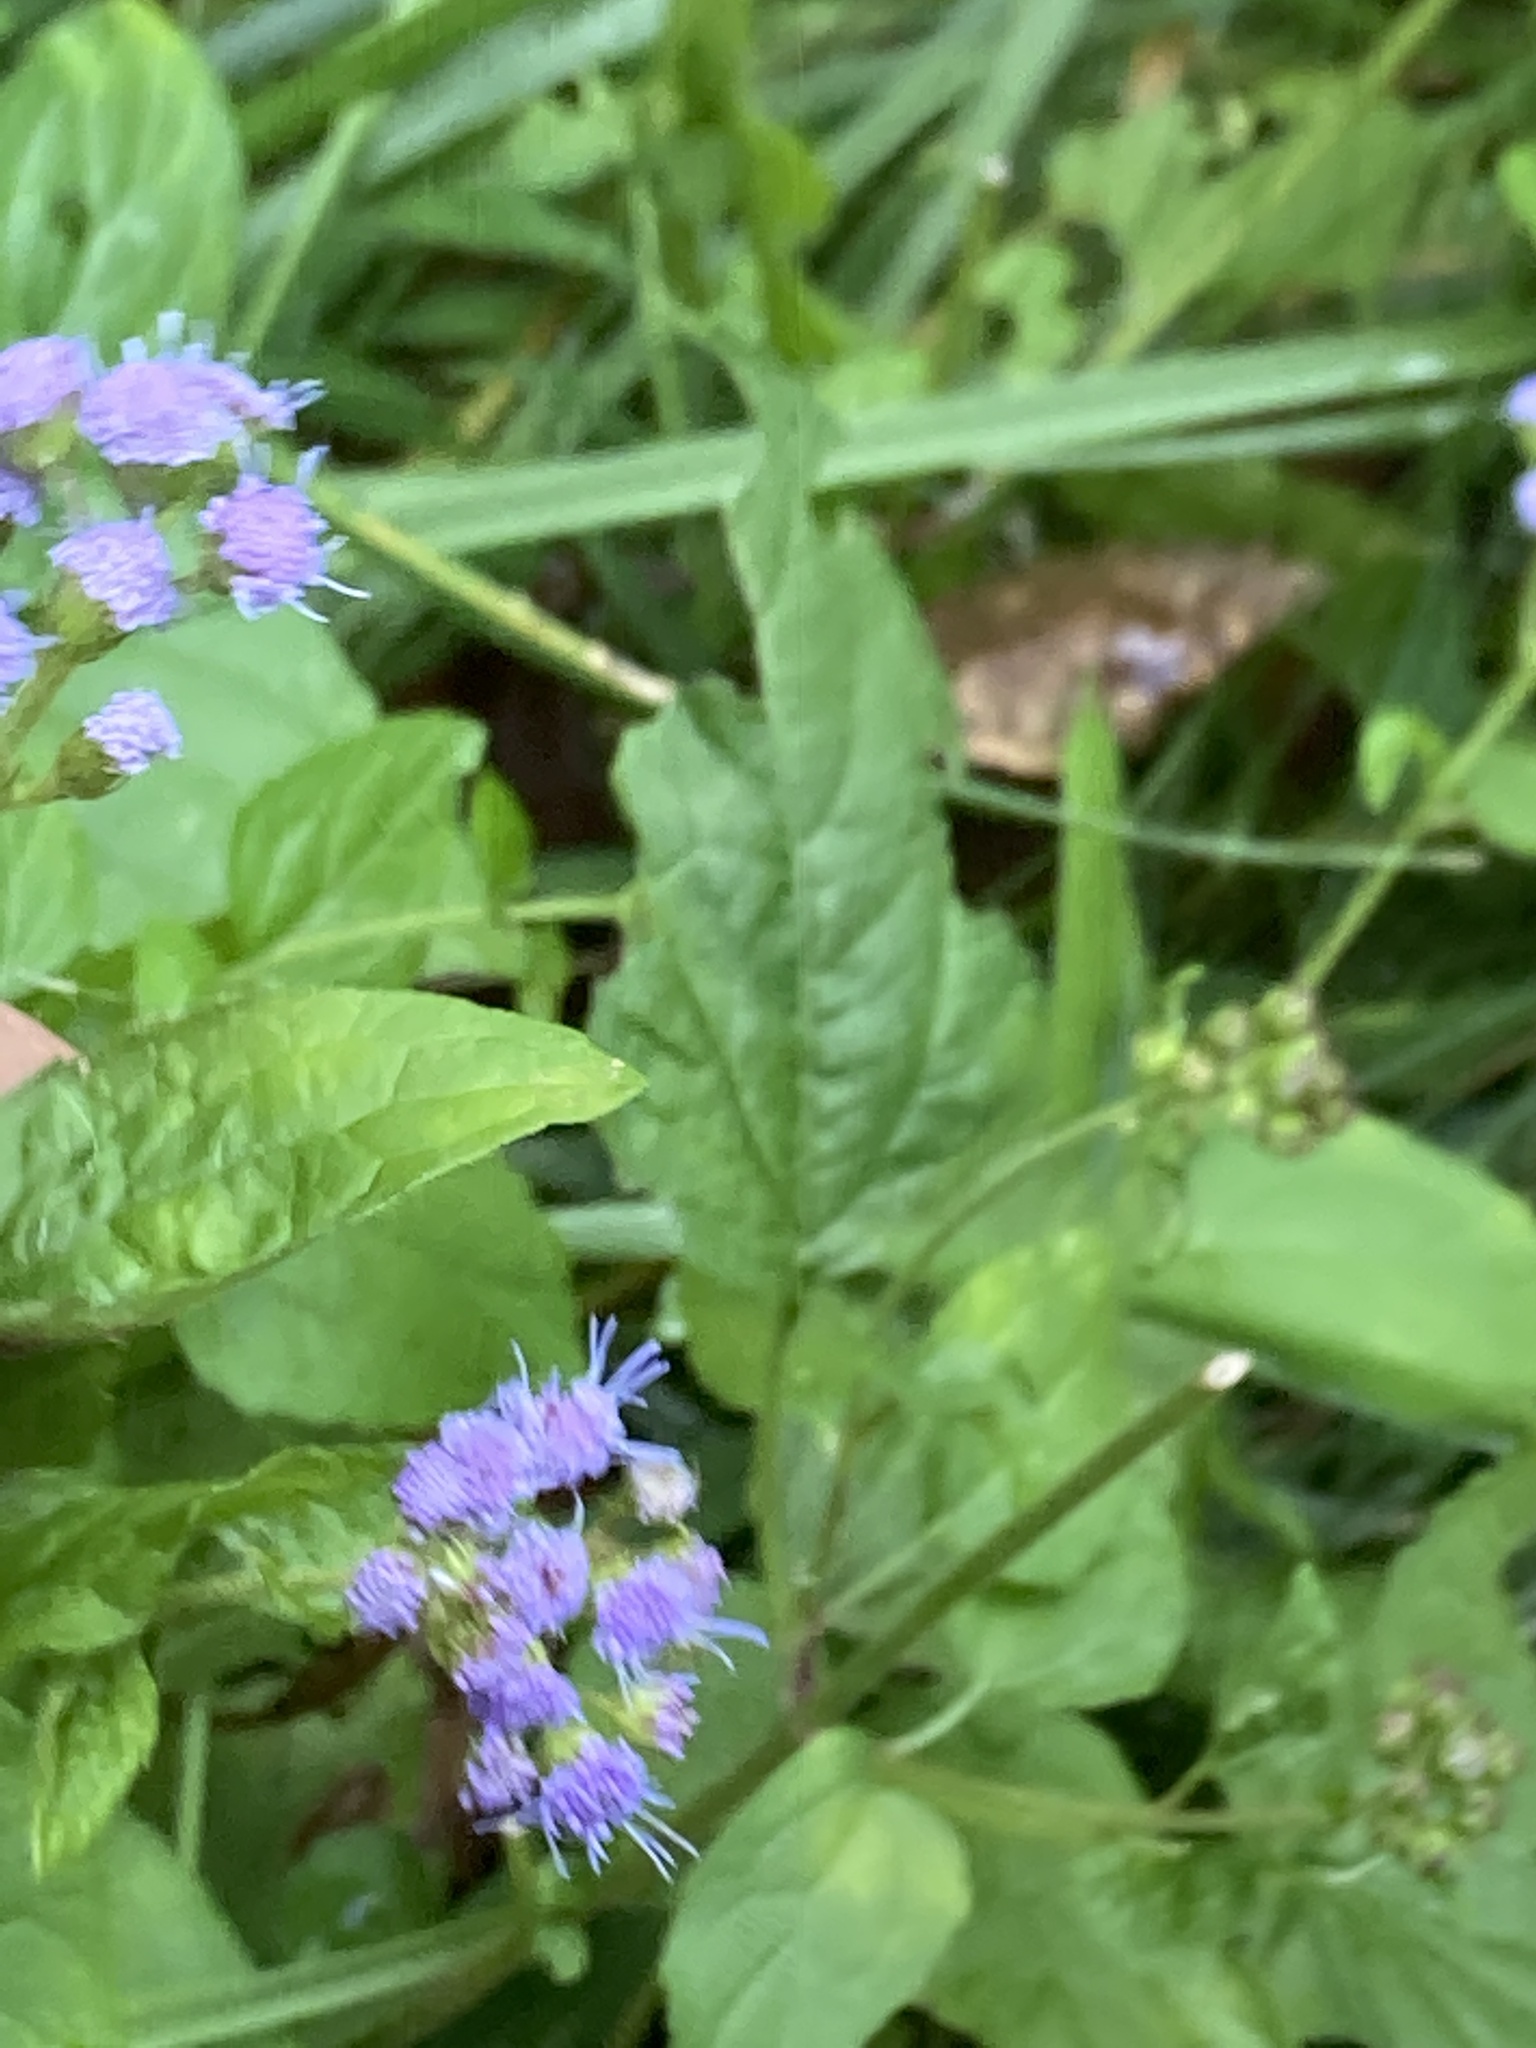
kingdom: Plantae
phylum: Tracheophyta
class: Magnoliopsida
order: Asterales
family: Asteraceae
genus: Conoclinium
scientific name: Conoclinium coelestinum
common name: Blue mistflower
